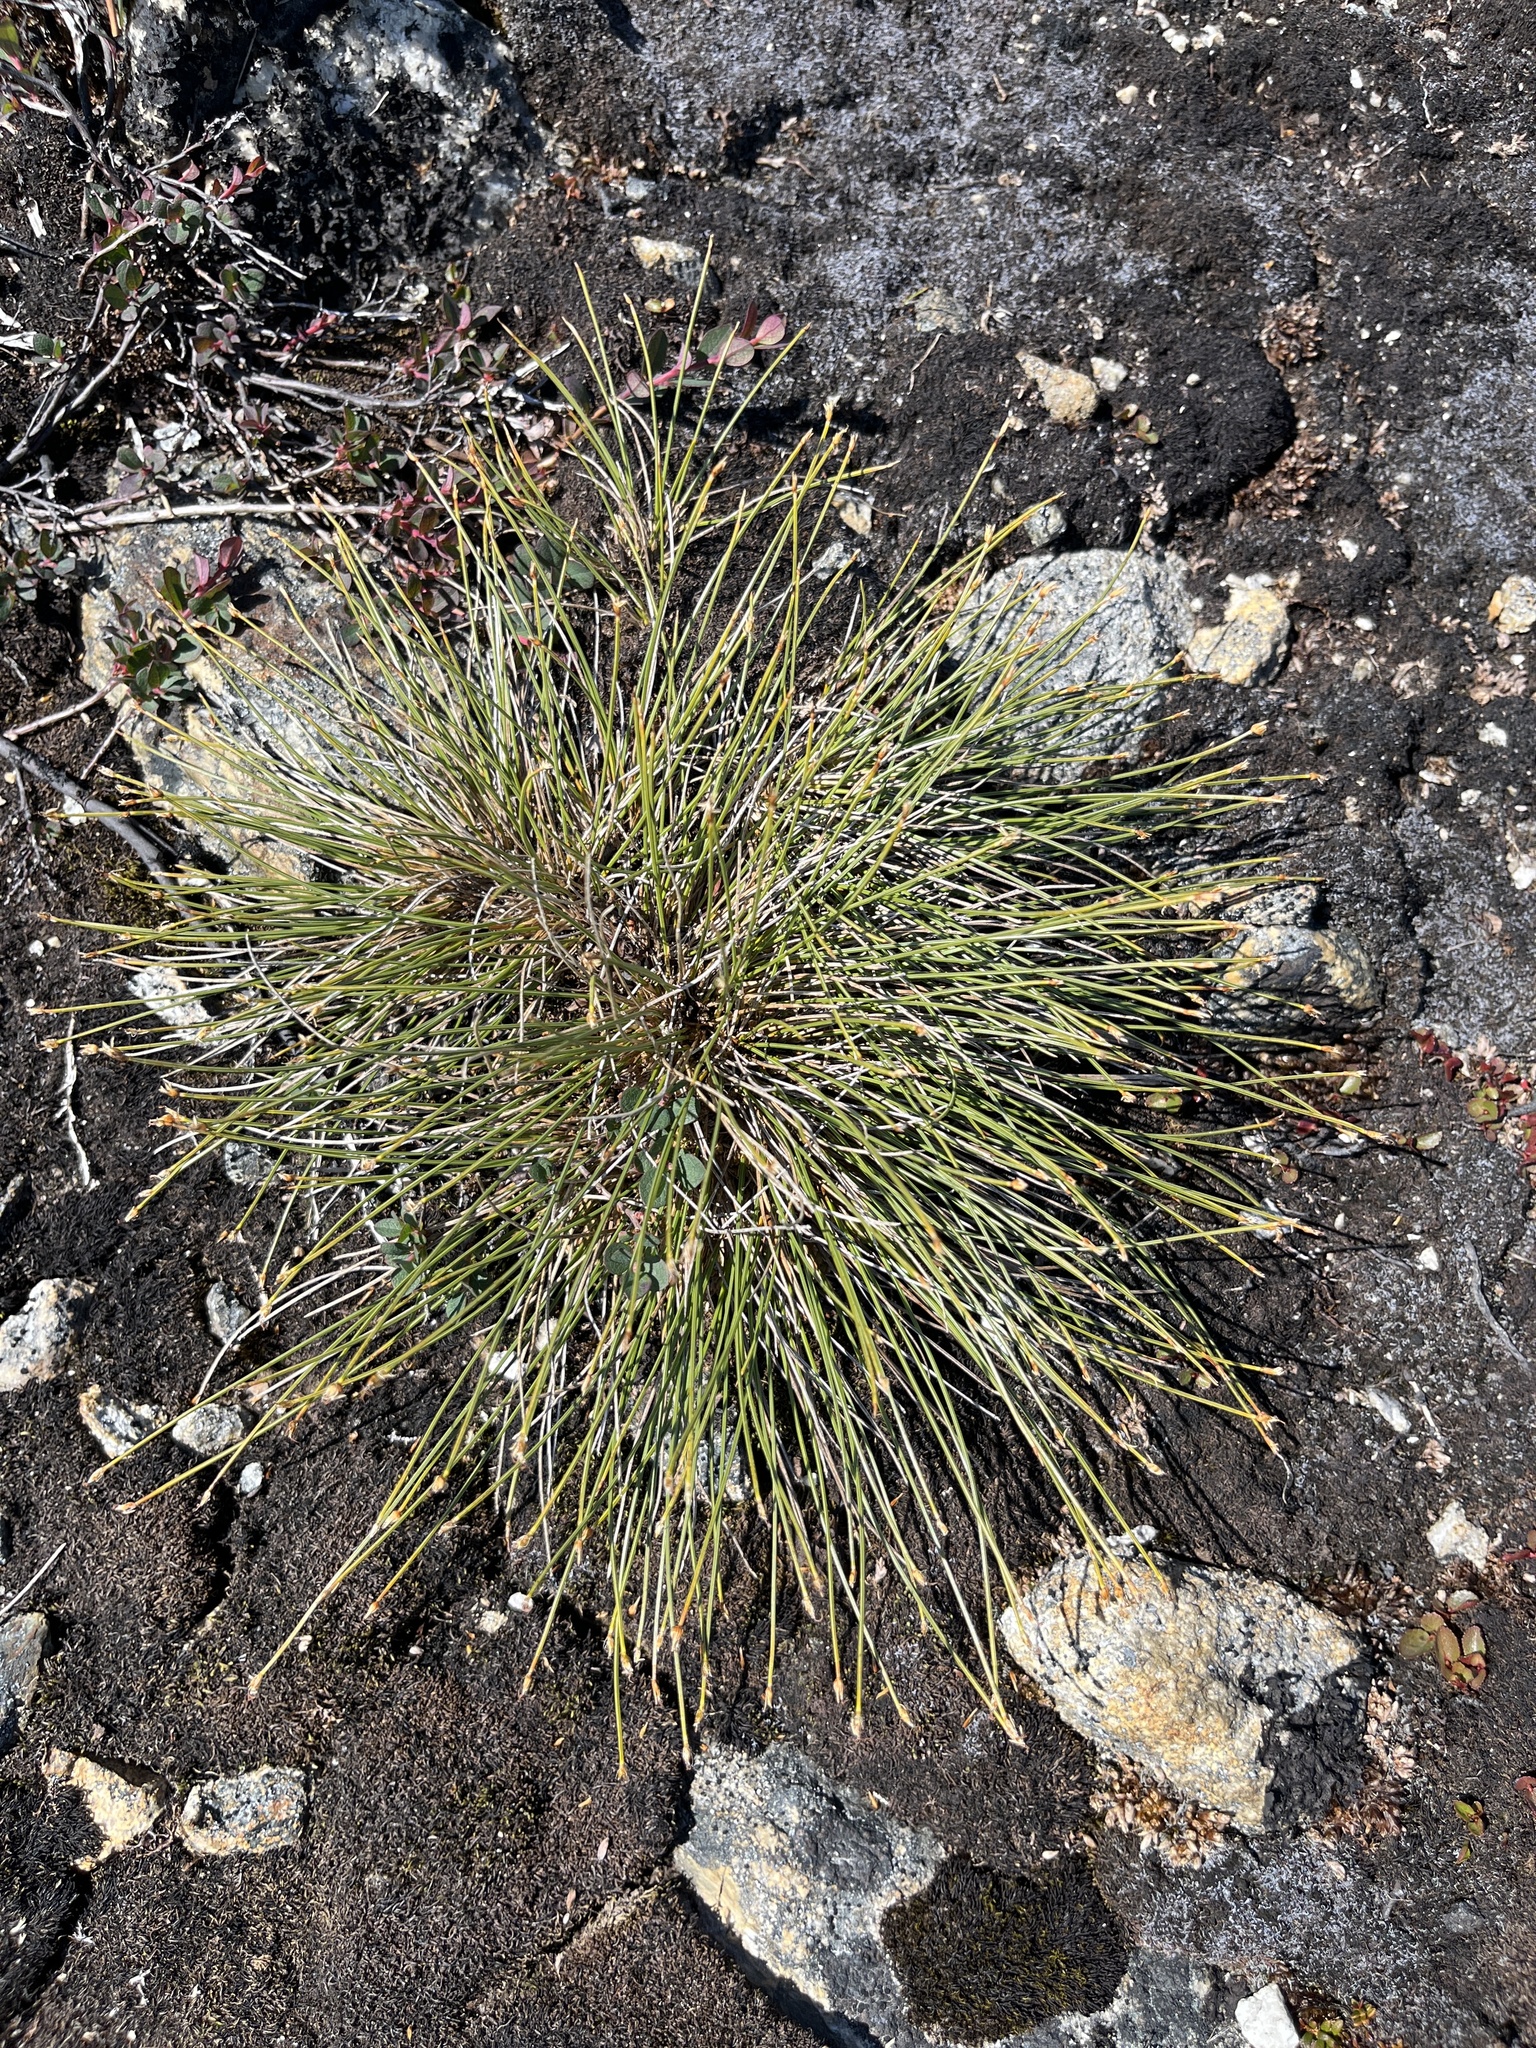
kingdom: Plantae
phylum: Tracheophyta
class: Liliopsida
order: Poales
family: Cyperaceae
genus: Trichophorum
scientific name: Trichophorum cespitosum
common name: Cespitose bulrush
